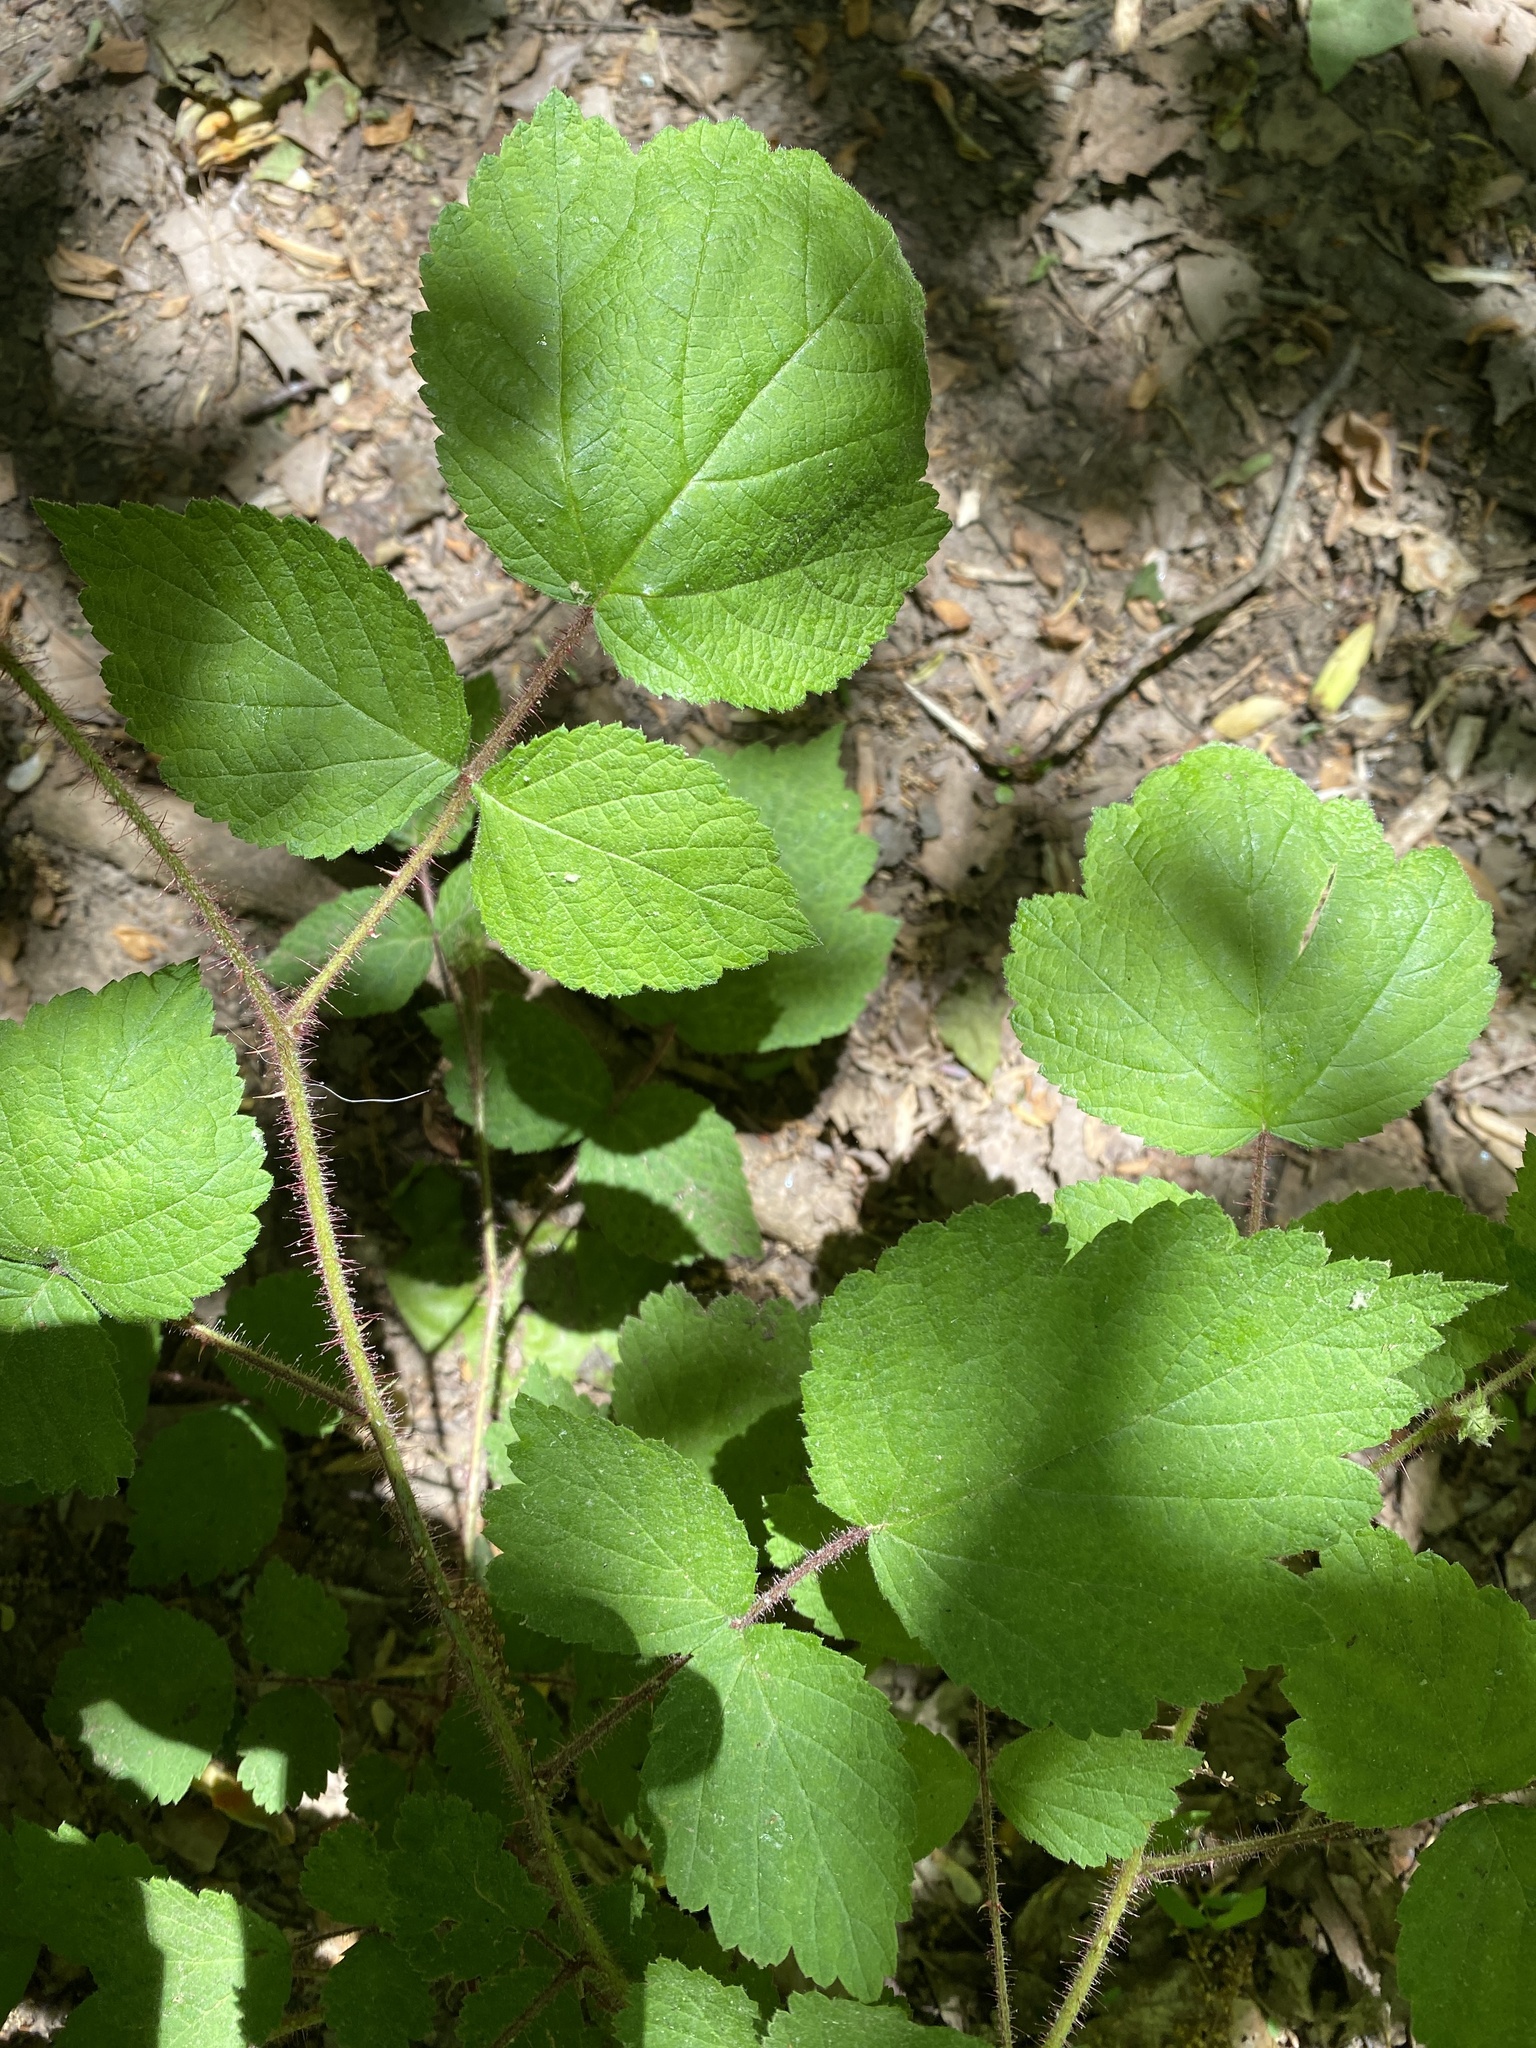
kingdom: Plantae
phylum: Tracheophyta
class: Magnoliopsida
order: Rosales
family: Rosaceae
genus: Rubus
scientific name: Rubus phoenicolasius
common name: Japanese wineberry
